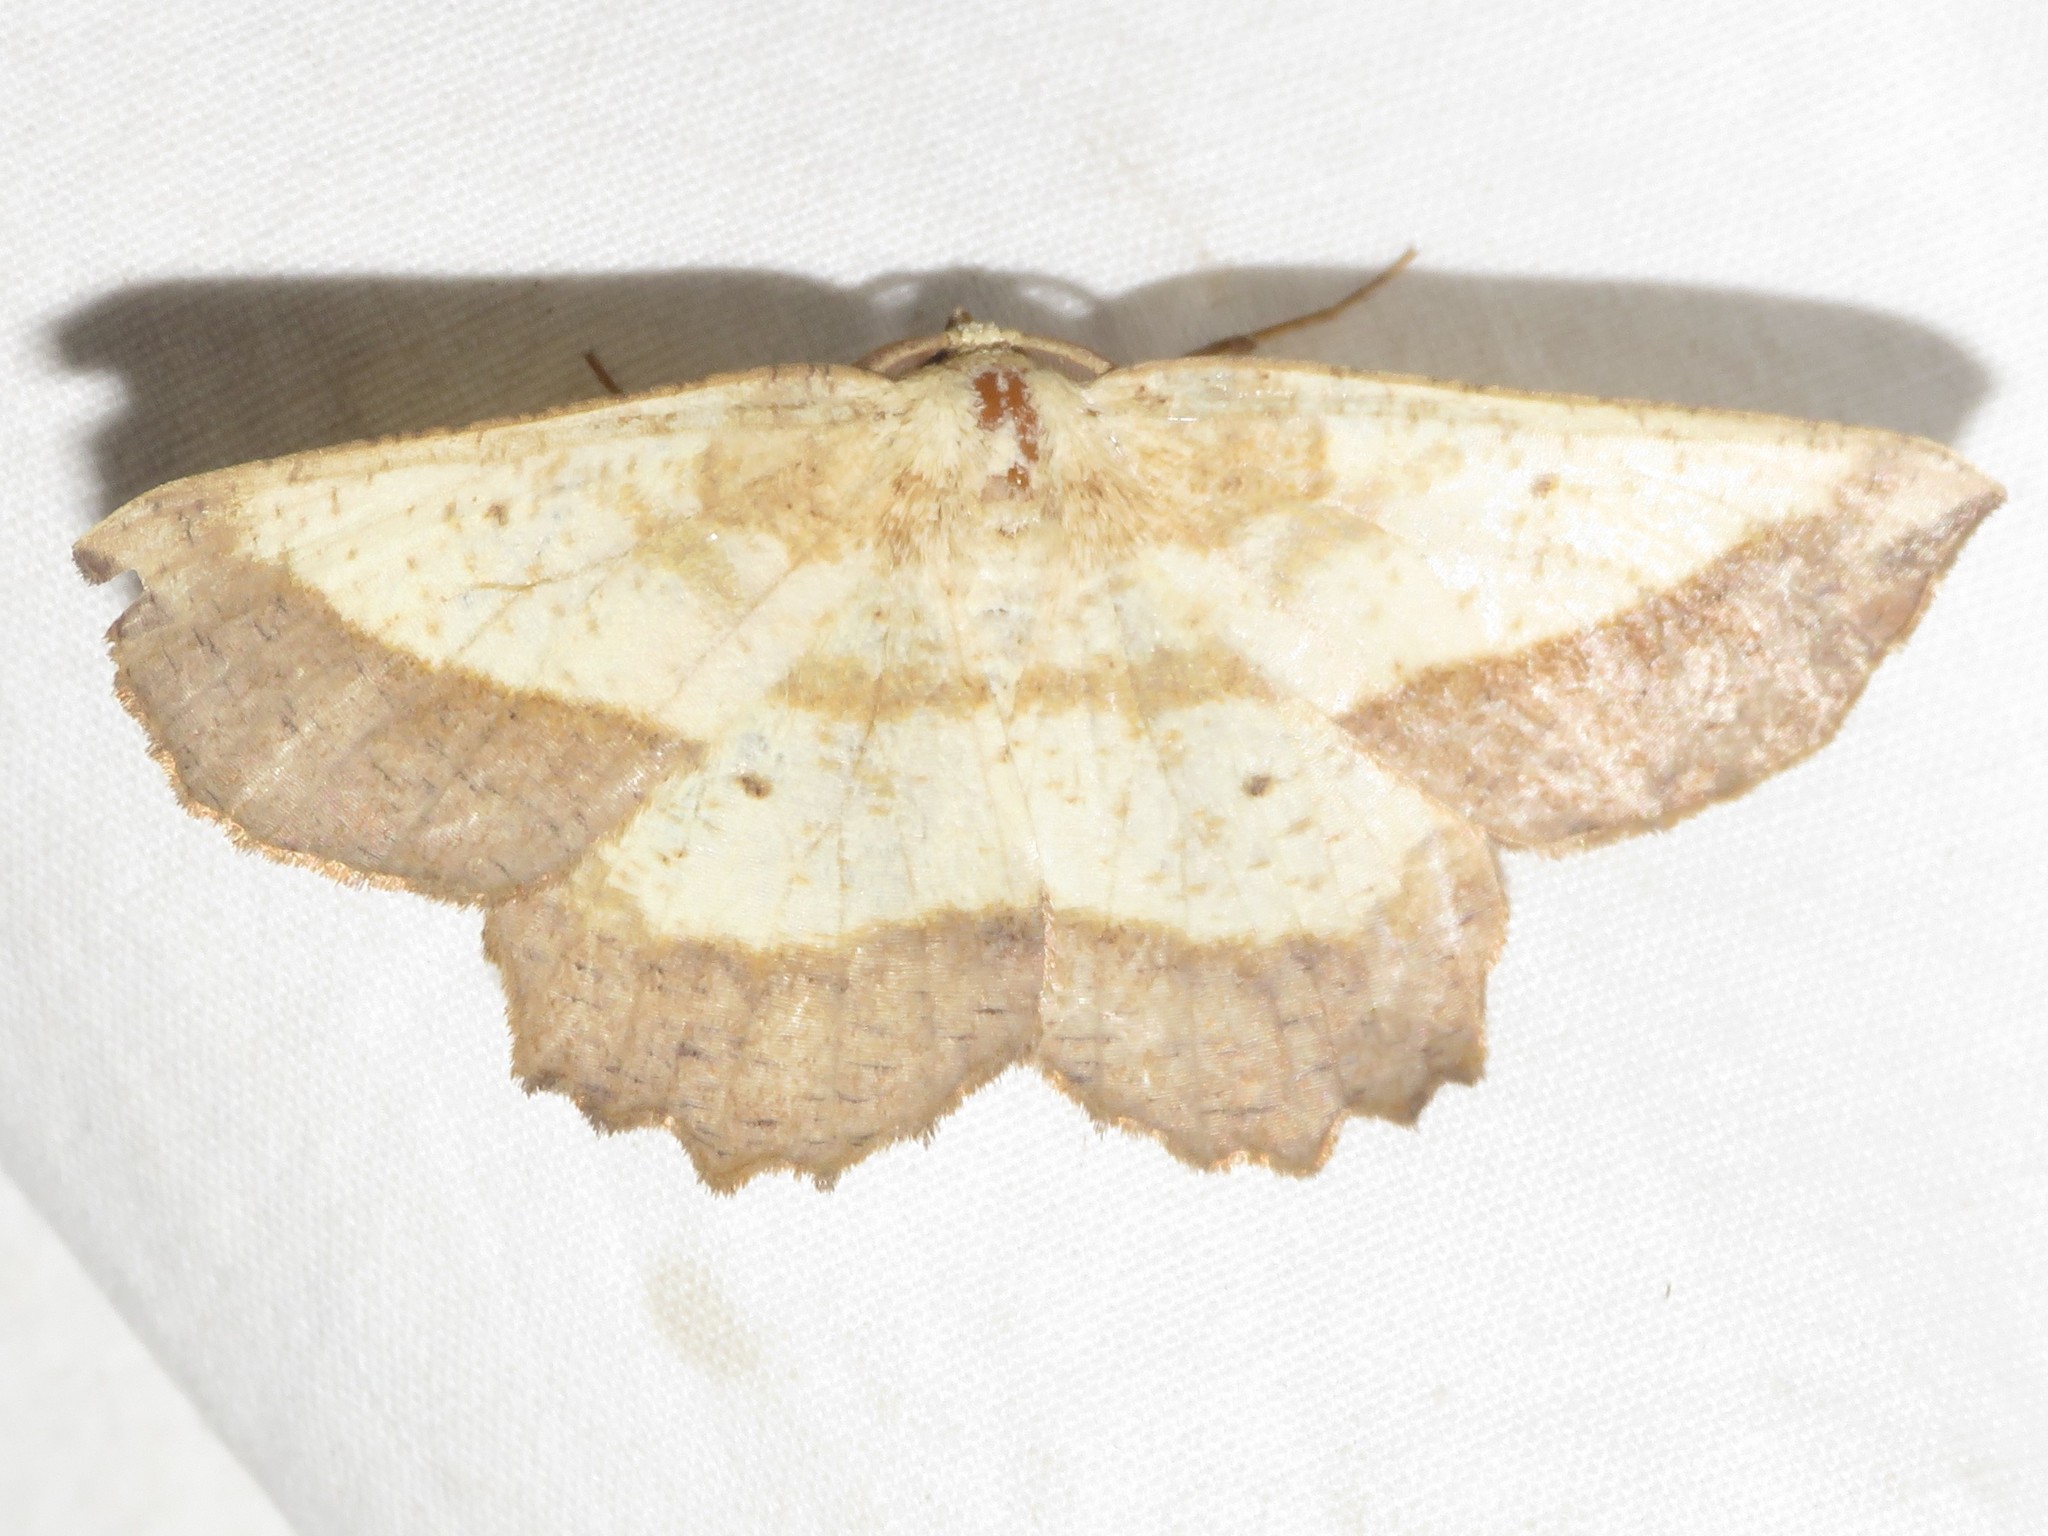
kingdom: Animalia
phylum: Arthropoda
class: Insecta
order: Lepidoptera
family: Geometridae
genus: Euchlaena
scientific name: Euchlaena serrata
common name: Saw wing
